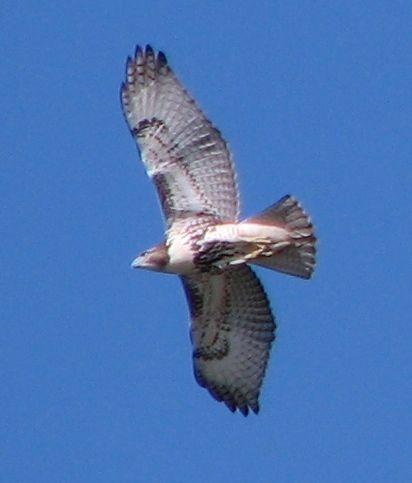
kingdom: Animalia
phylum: Chordata
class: Aves
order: Accipitriformes
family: Accipitridae
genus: Buteo
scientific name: Buteo jamaicensis
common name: Red-tailed hawk
